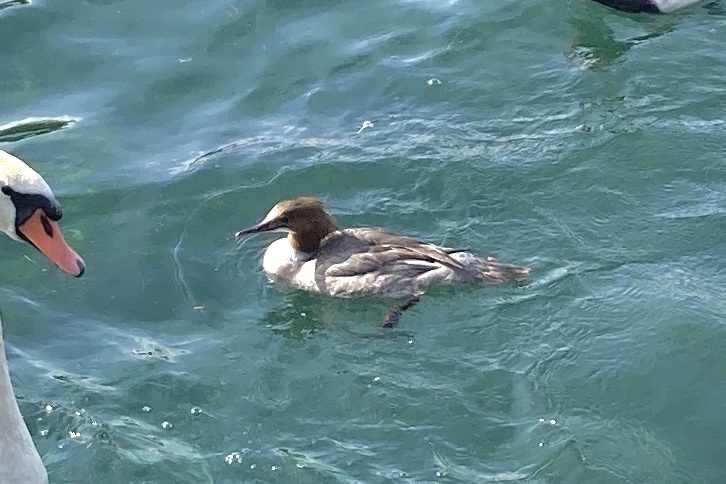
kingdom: Animalia
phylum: Chordata
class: Aves
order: Anseriformes
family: Anatidae
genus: Mergus
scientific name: Mergus merganser
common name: Common merganser
